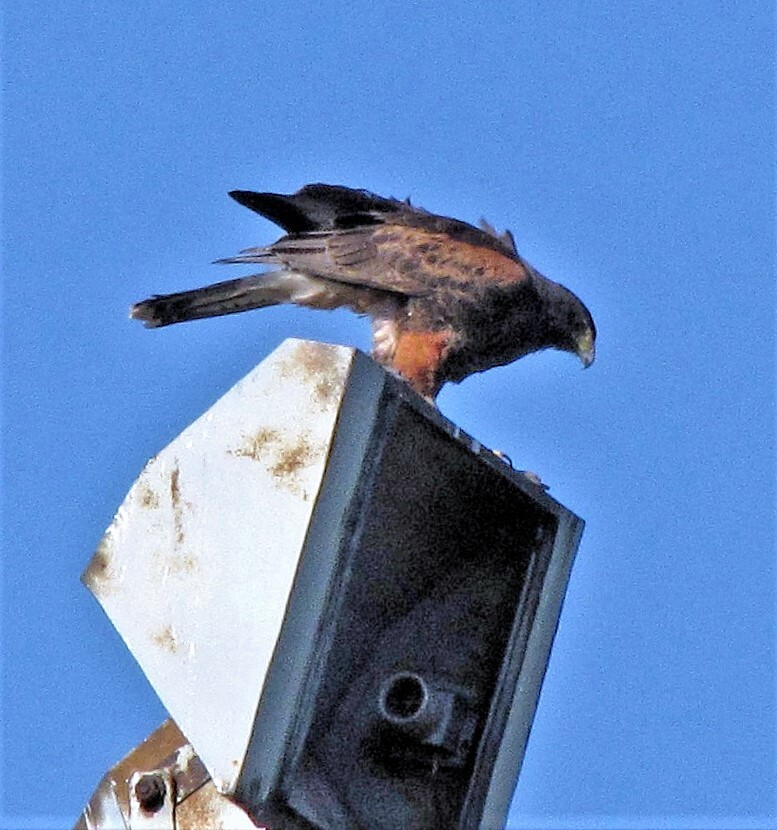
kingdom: Animalia
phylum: Chordata
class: Aves
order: Accipitriformes
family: Accipitridae
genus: Parabuteo
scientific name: Parabuteo unicinctus
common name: Harris's hawk
